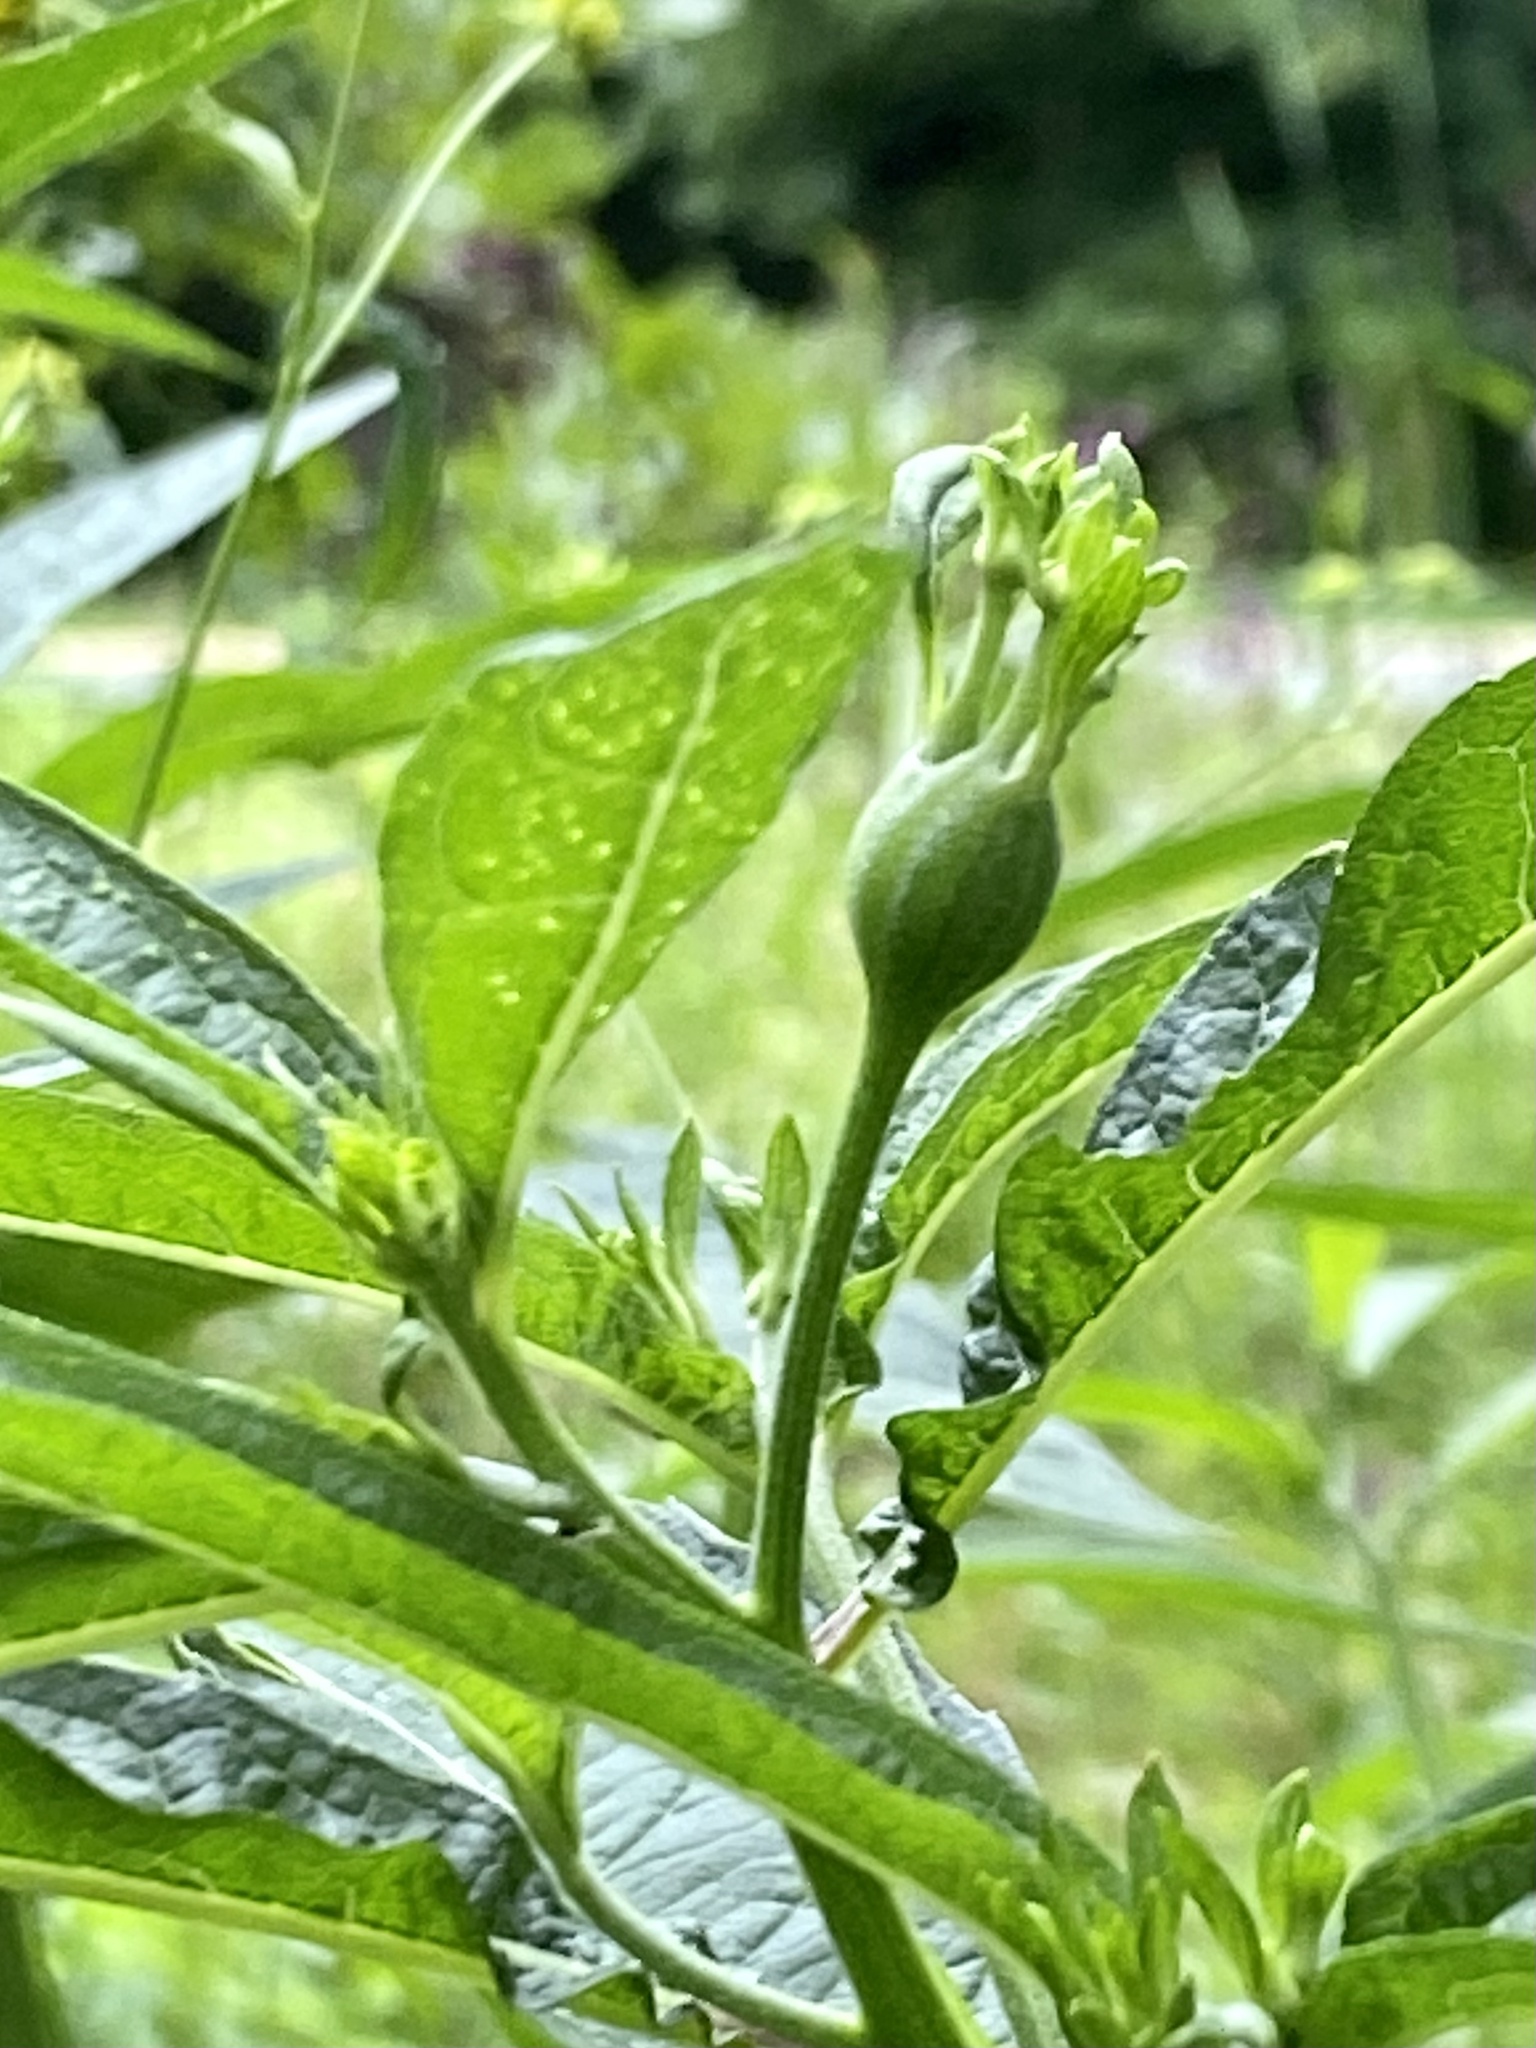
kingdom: Animalia
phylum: Arthropoda
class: Insecta
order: Diptera
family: Cecidomyiidae
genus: Neolasioptera
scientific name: Neolasioptera verbesinae
